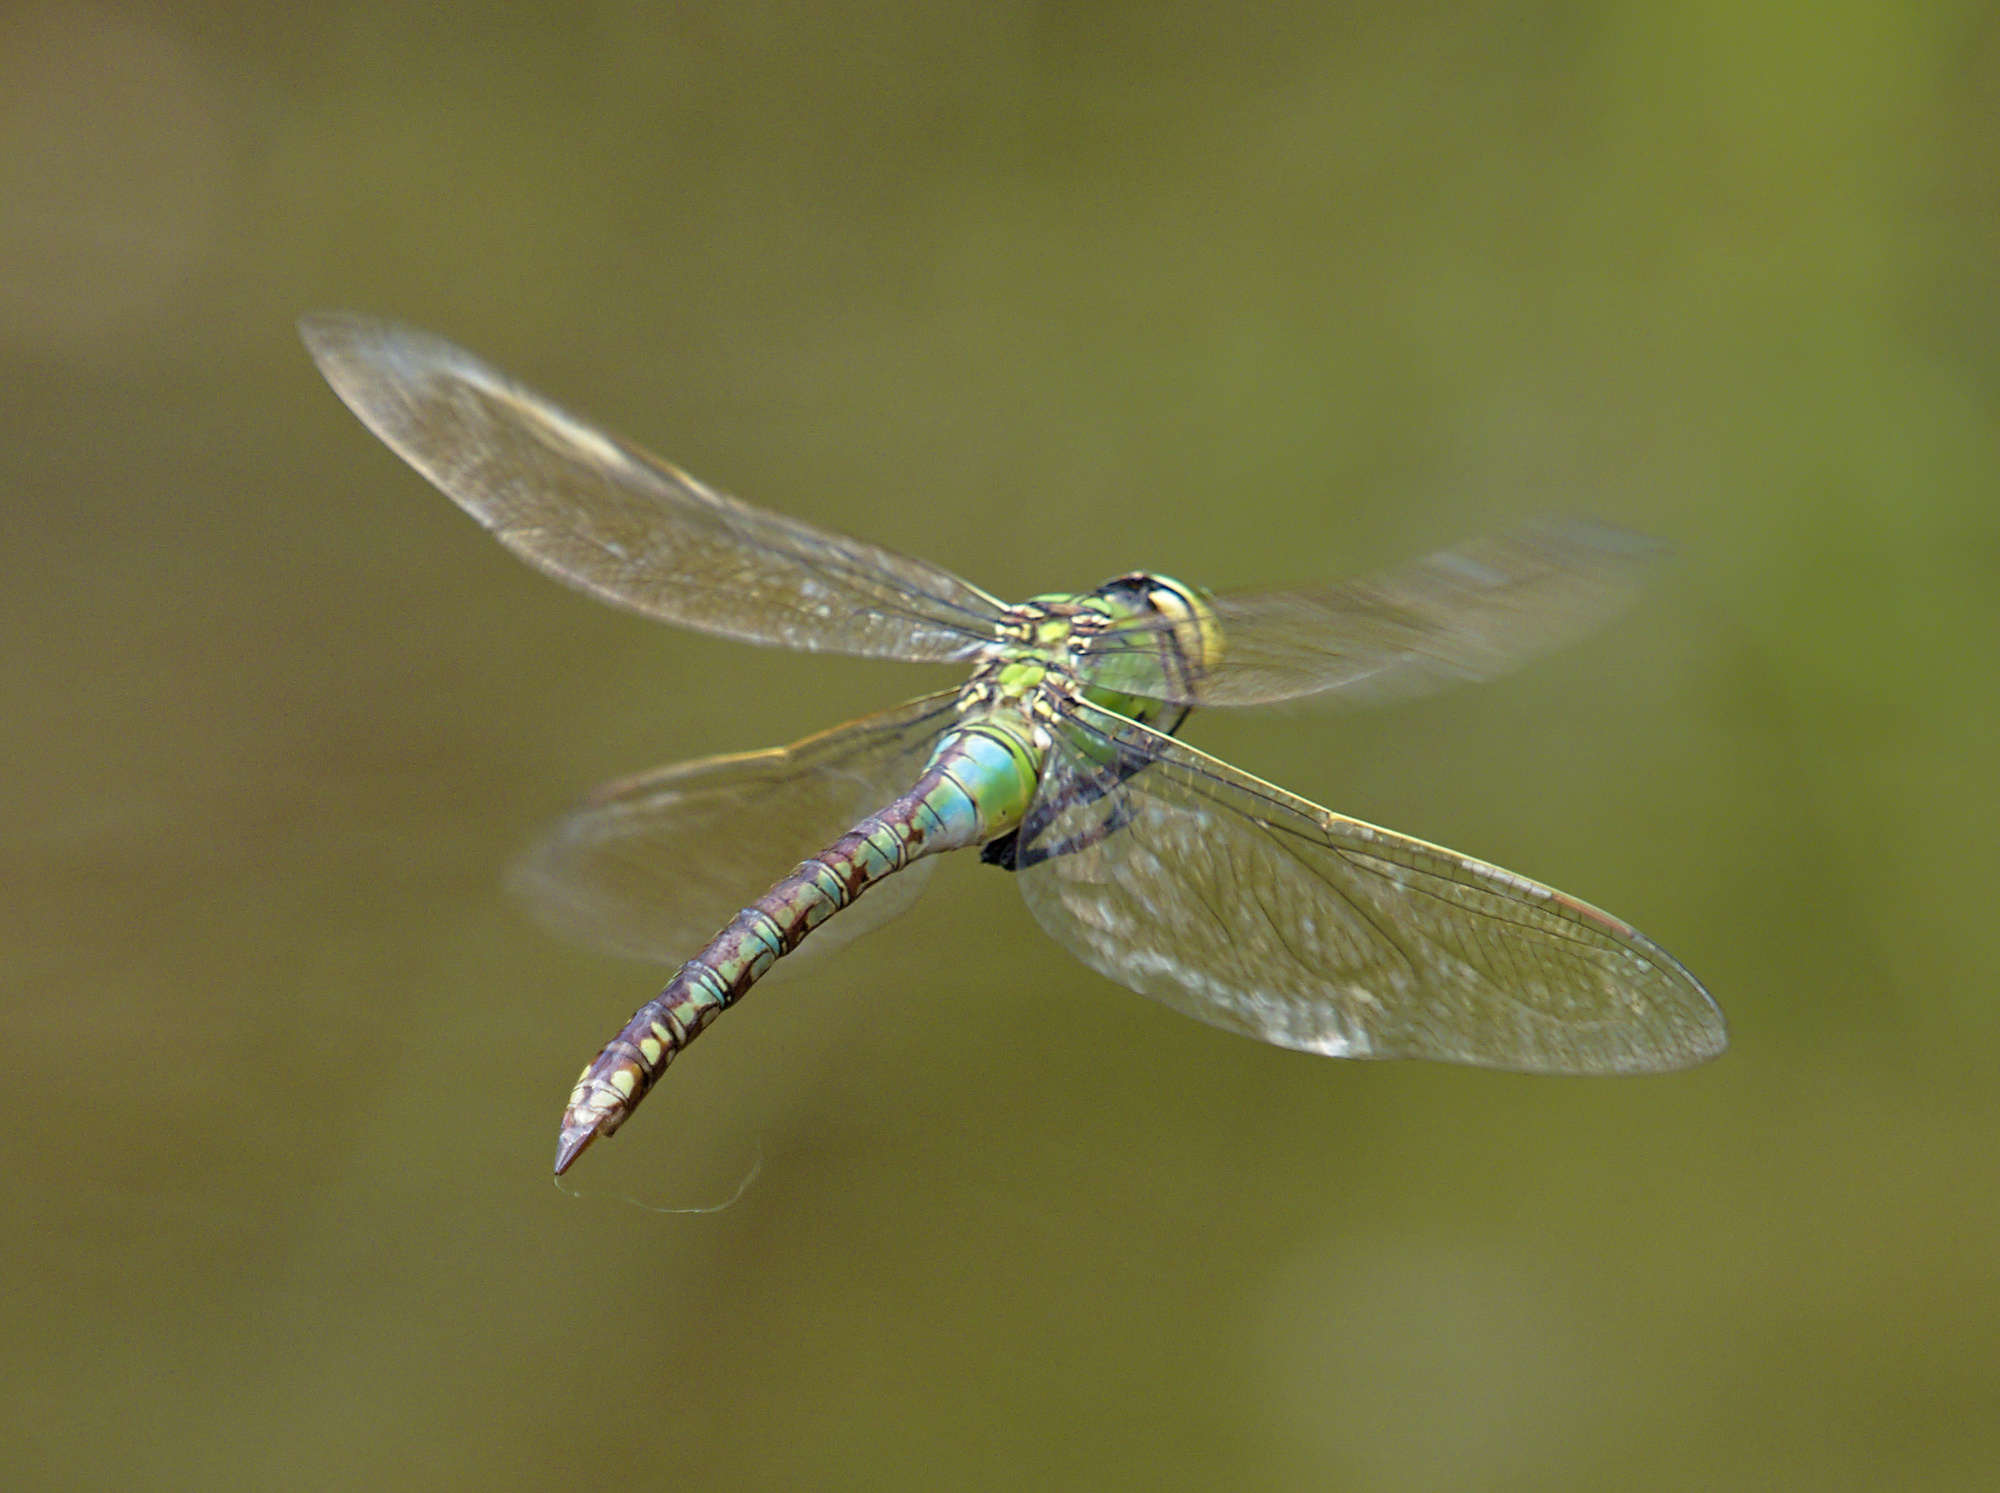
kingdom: Animalia
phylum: Arthropoda
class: Insecta
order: Odonata
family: Aeshnidae
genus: Anax
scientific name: Anax imperator
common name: Emperor dragonfly
